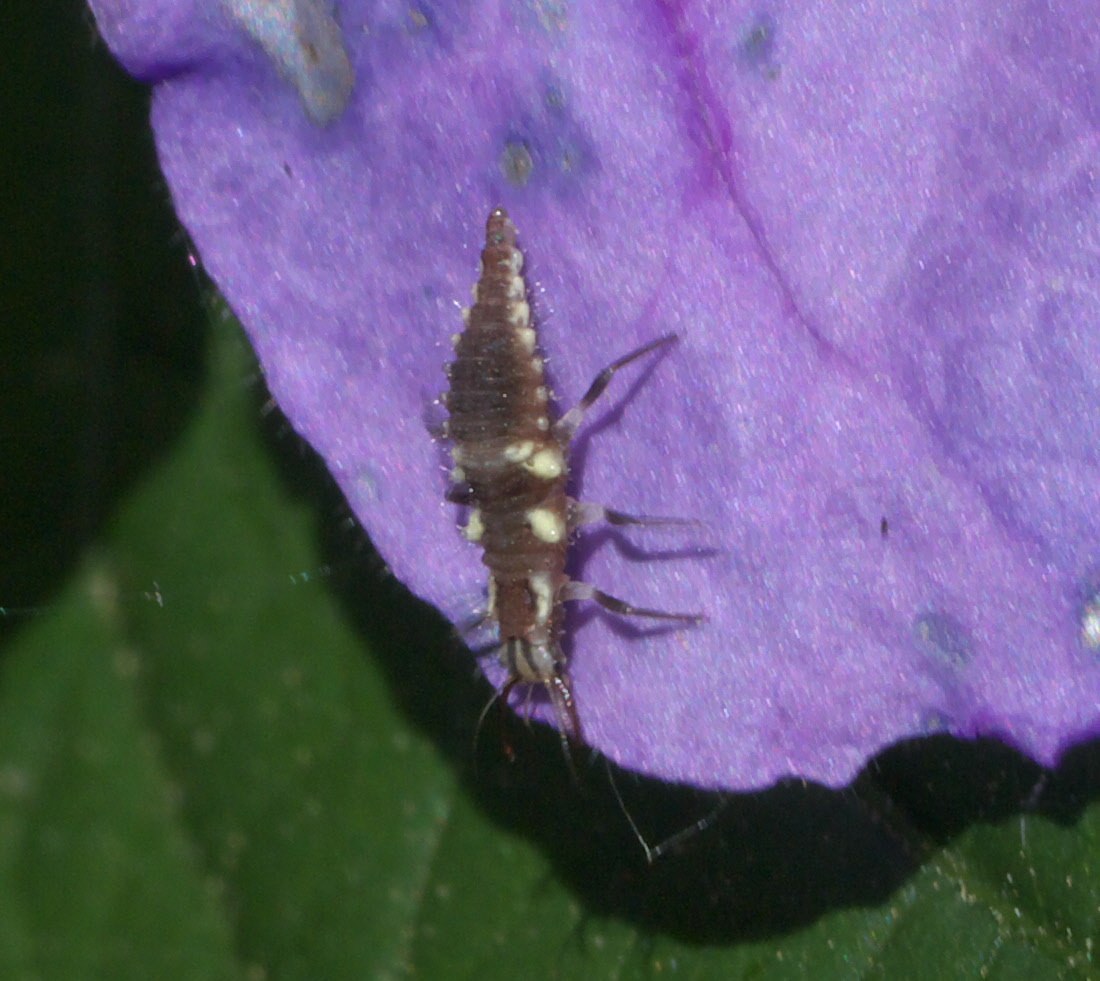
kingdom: Animalia
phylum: Arthropoda
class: Insecta
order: Neuroptera
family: Chrysopidae
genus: Chrysoperla
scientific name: Chrysoperla rufilabris
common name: Red-lipped green lacewing
